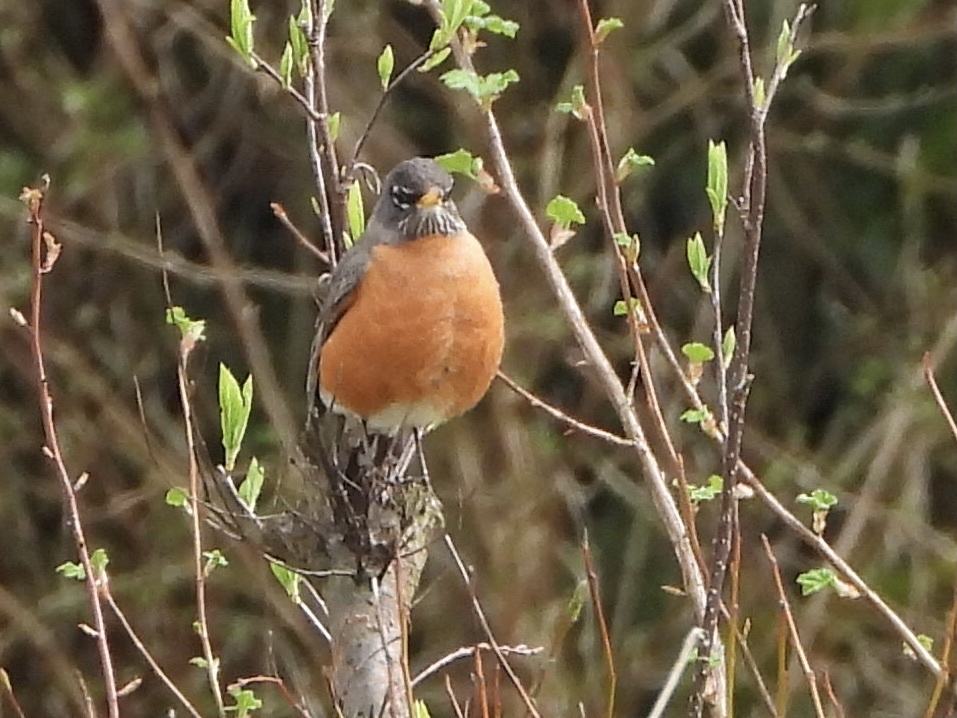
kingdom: Animalia
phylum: Chordata
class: Aves
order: Passeriformes
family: Turdidae
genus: Turdus
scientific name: Turdus migratorius
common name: American robin
